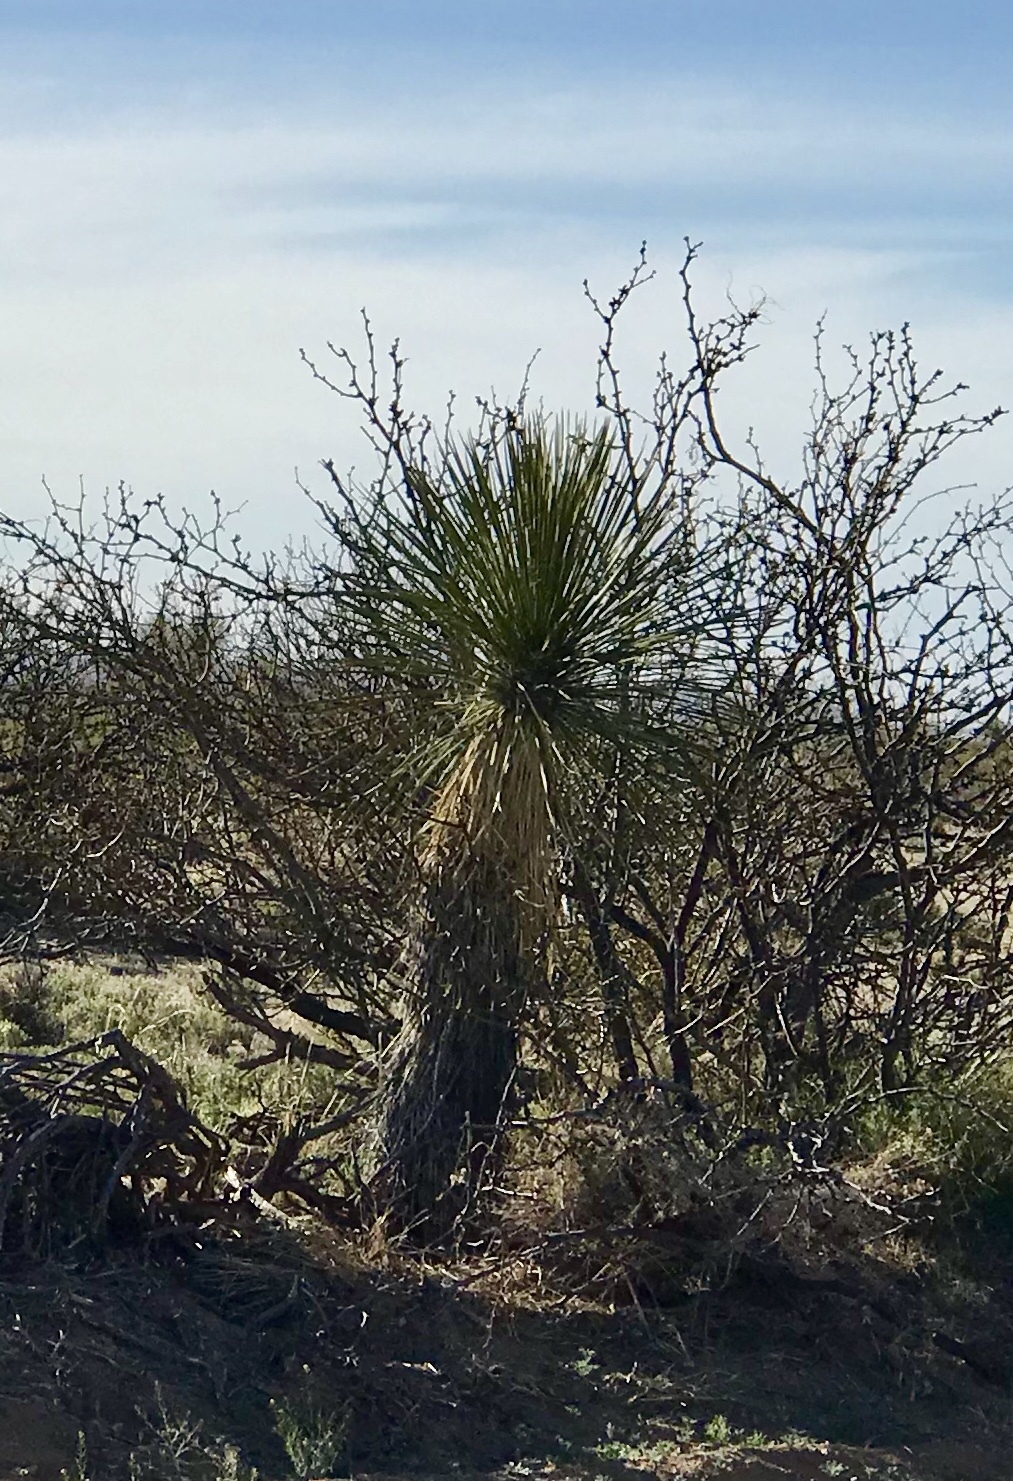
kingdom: Plantae
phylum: Tracheophyta
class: Liliopsida
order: Asparagales
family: Asparagaceae
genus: Yucca
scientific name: Yucca elata
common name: Palmella
